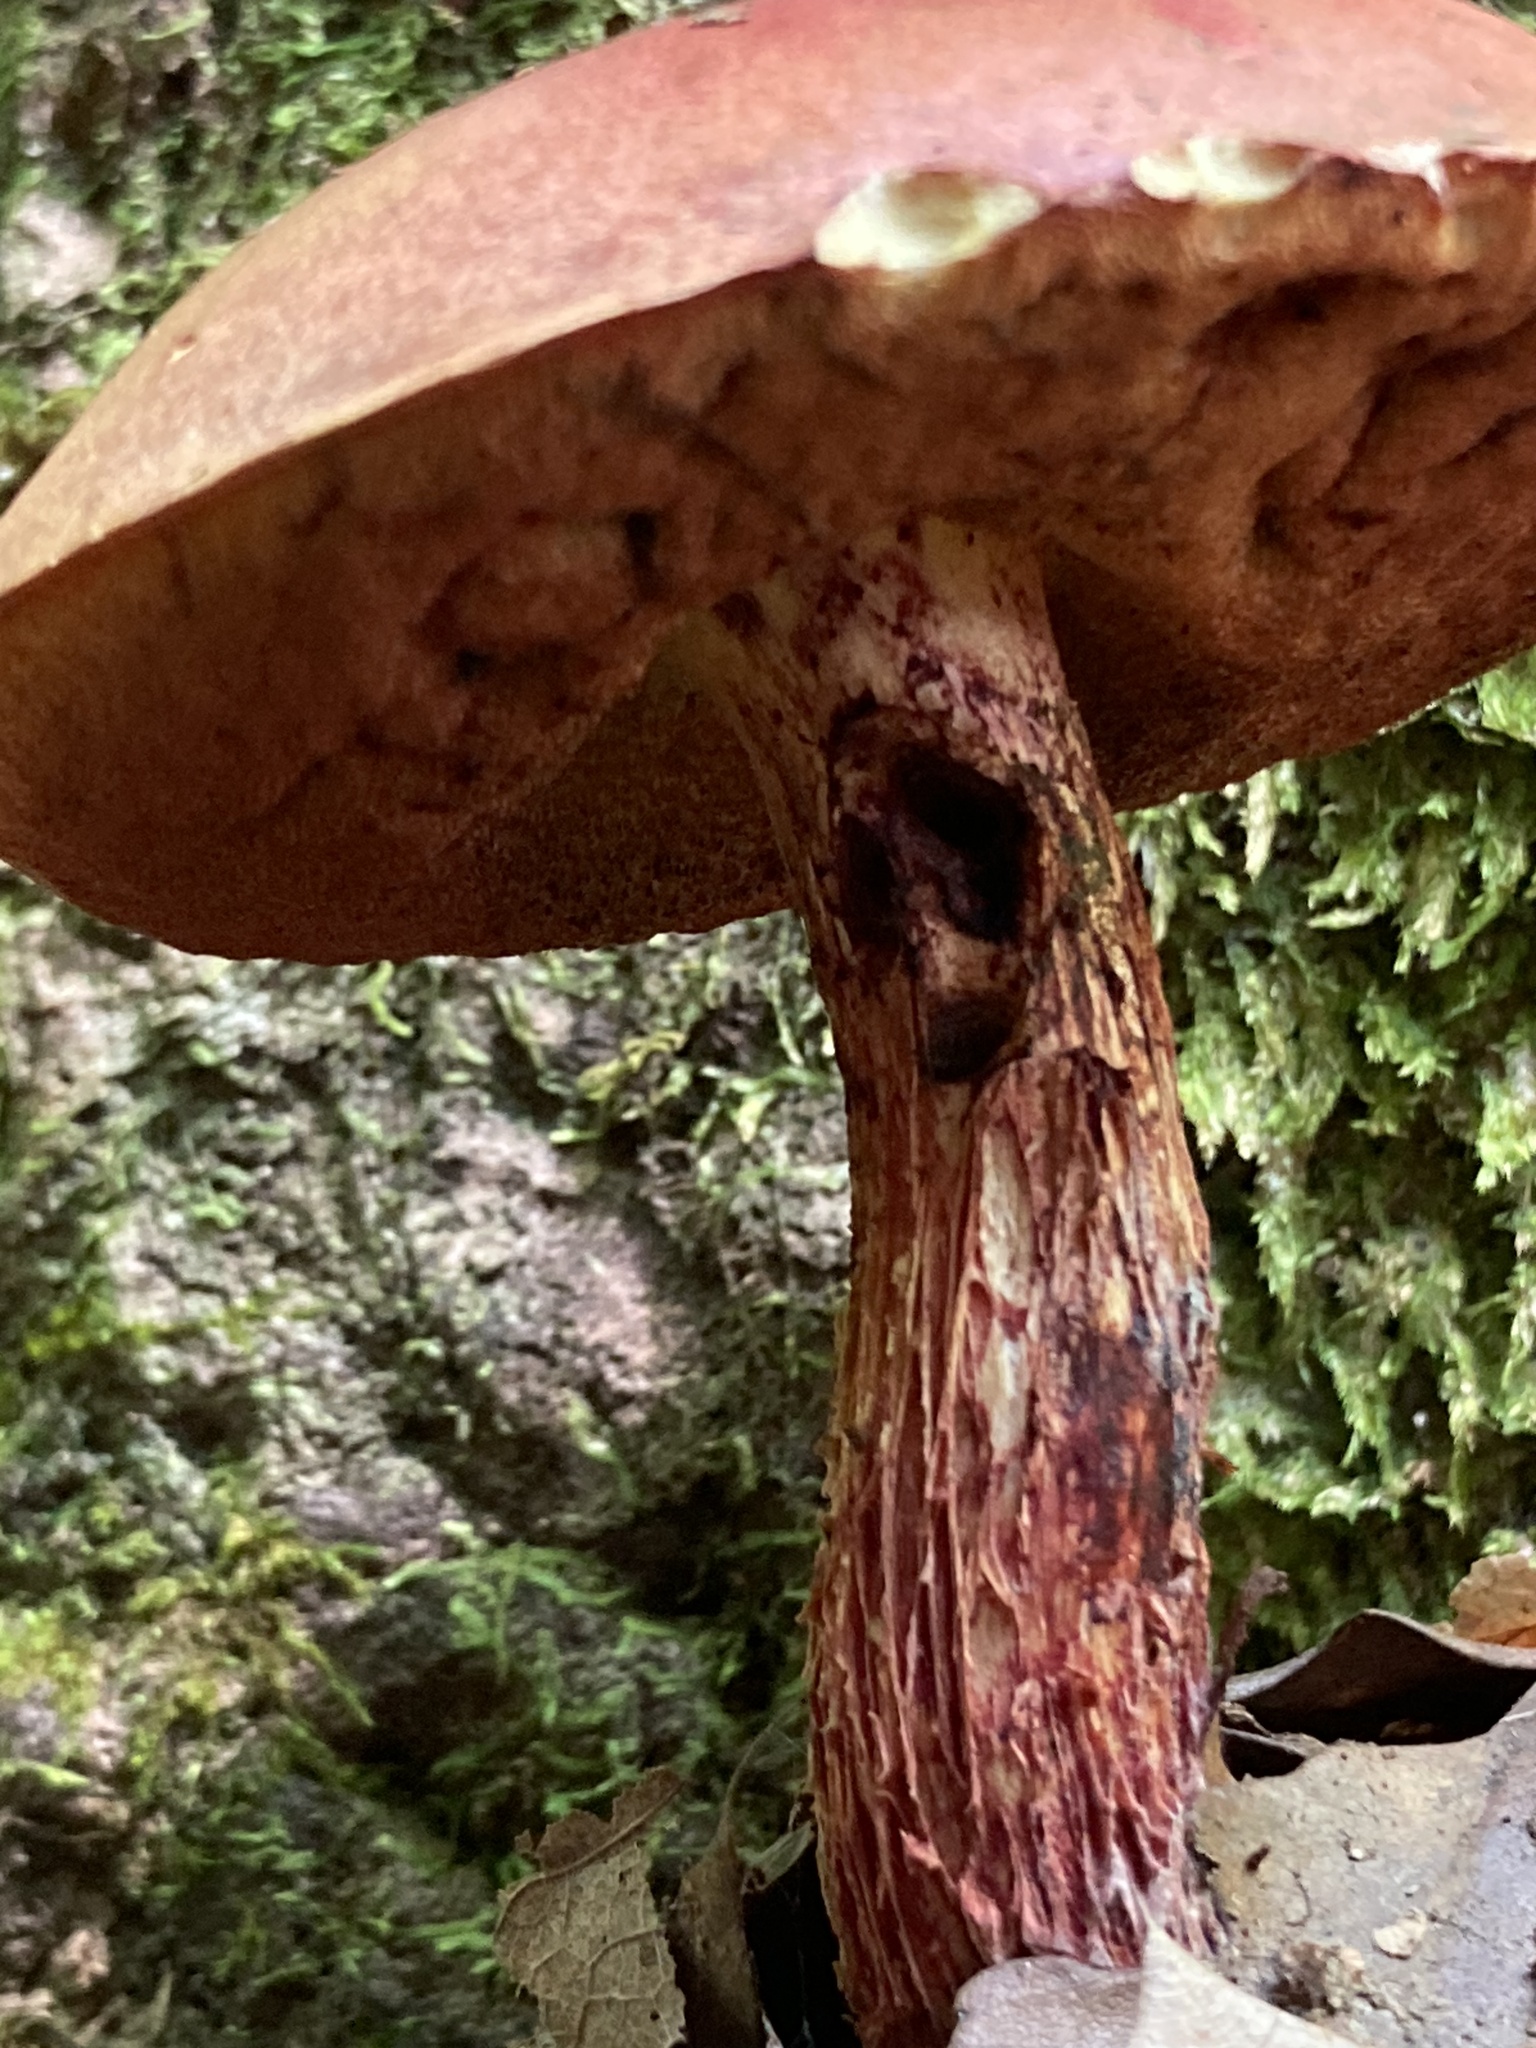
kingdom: Fungi
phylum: Basidiomycota
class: Agaricomycetes
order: Boletales
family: Boletaceae
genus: Butyriboletus
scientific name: Butyriboletus frostii
